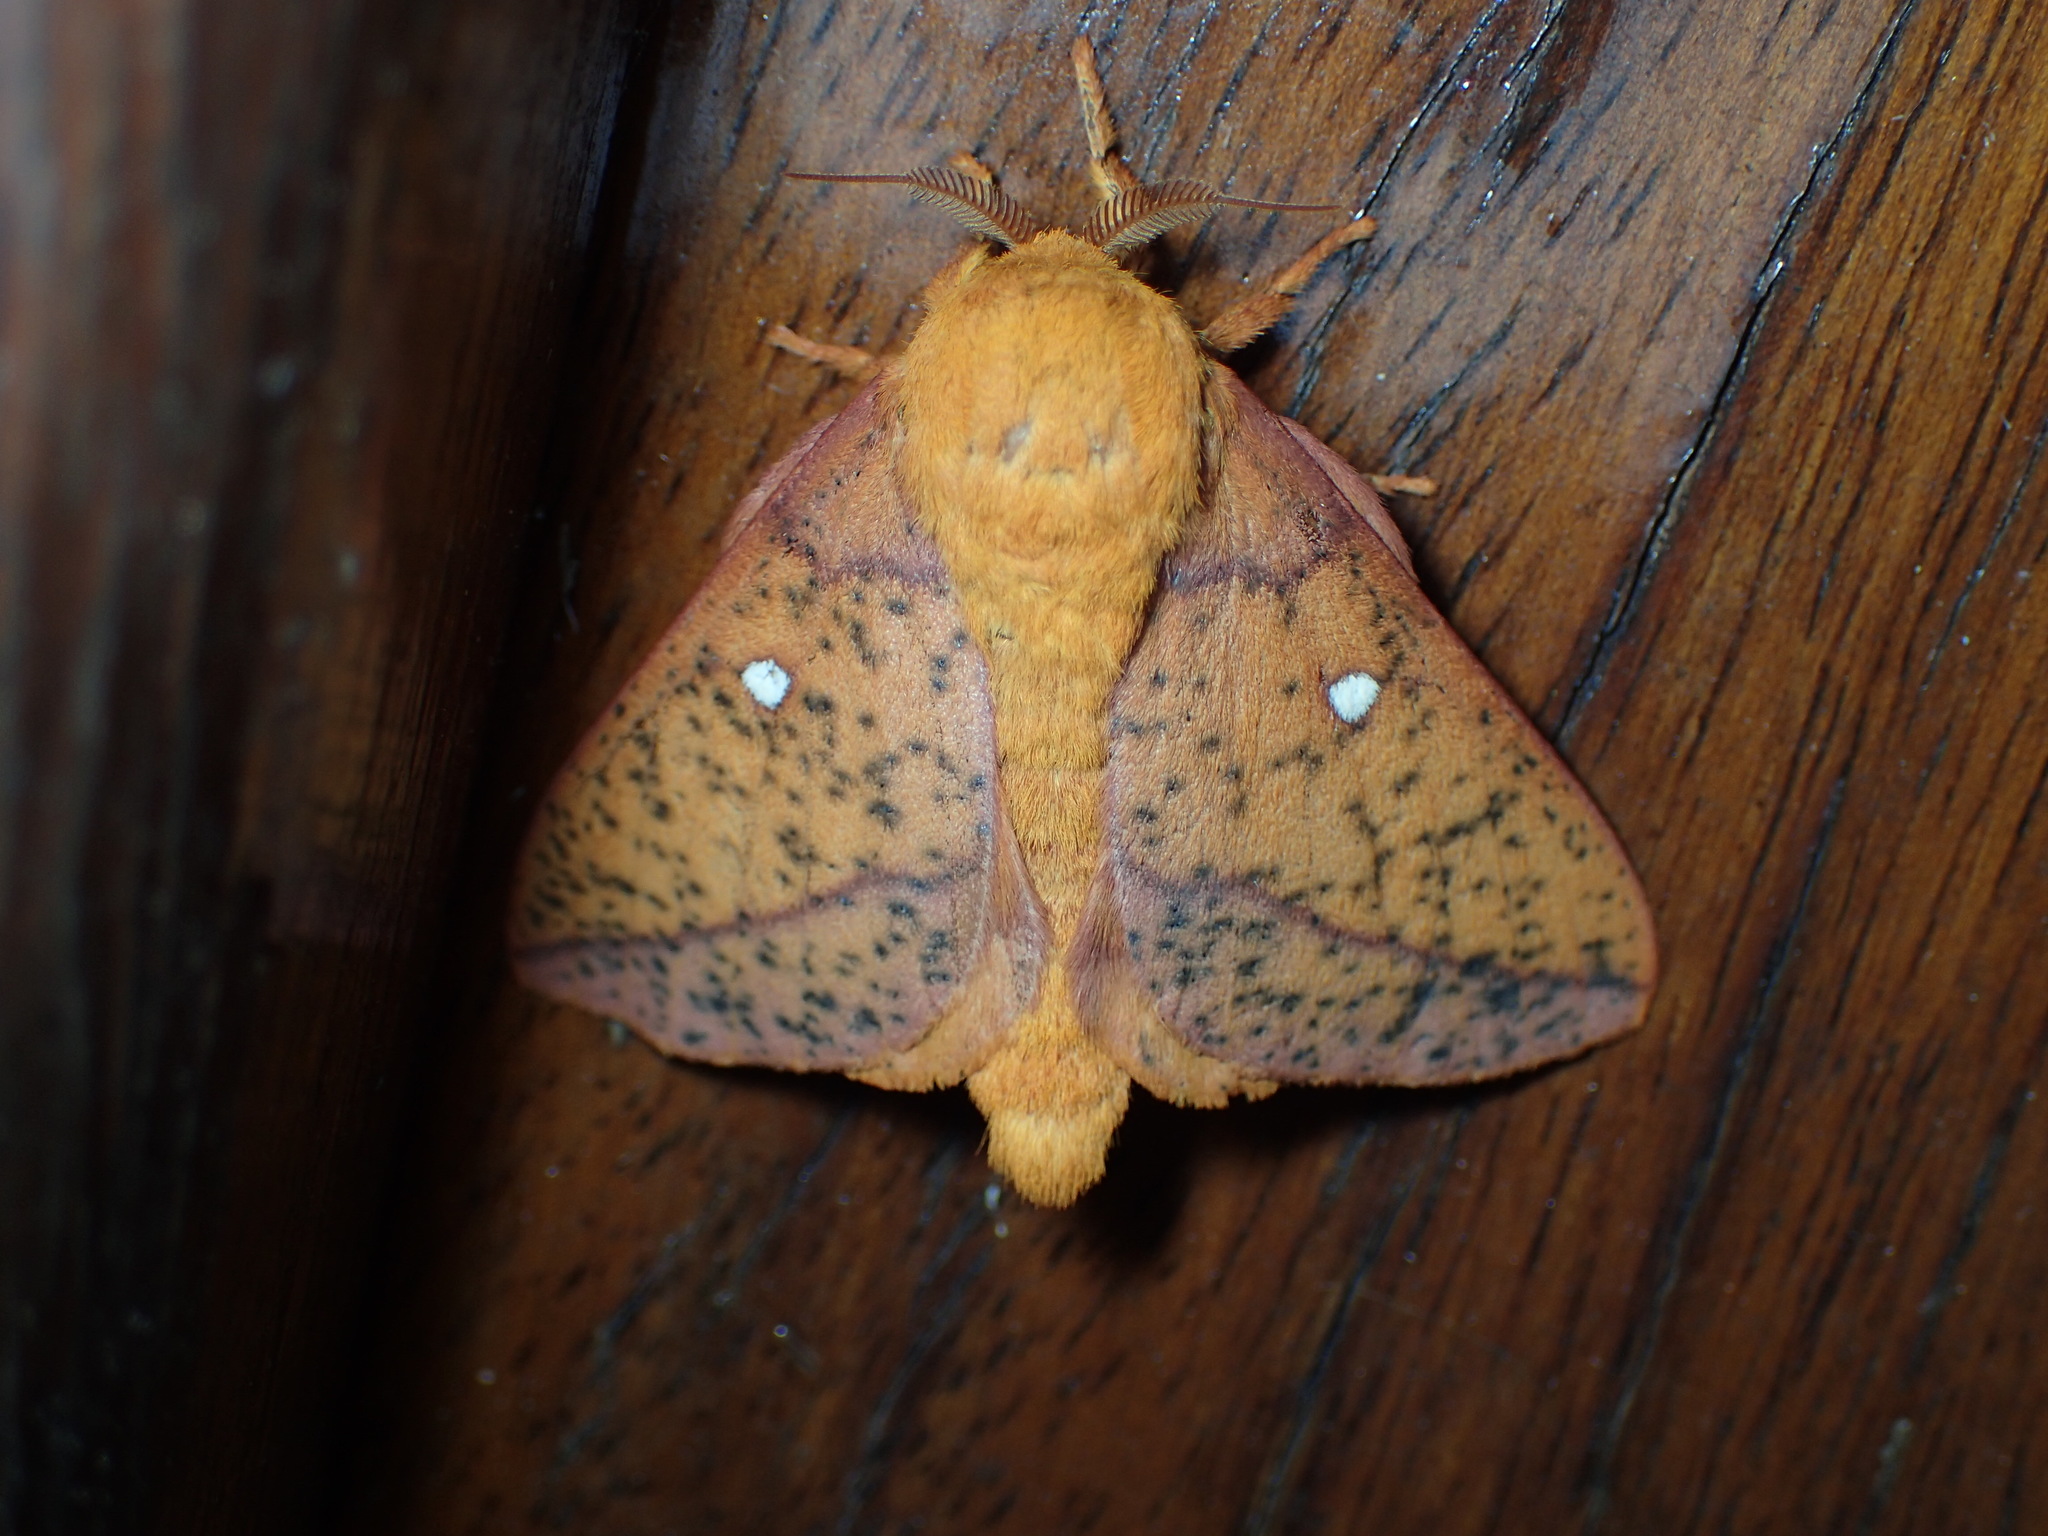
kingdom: Animalia
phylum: Arthropoda
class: Insecta
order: Lepidoptera
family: Saturniidae
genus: Anisota
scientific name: Anisota stigma
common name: Spiny oakworm moth
